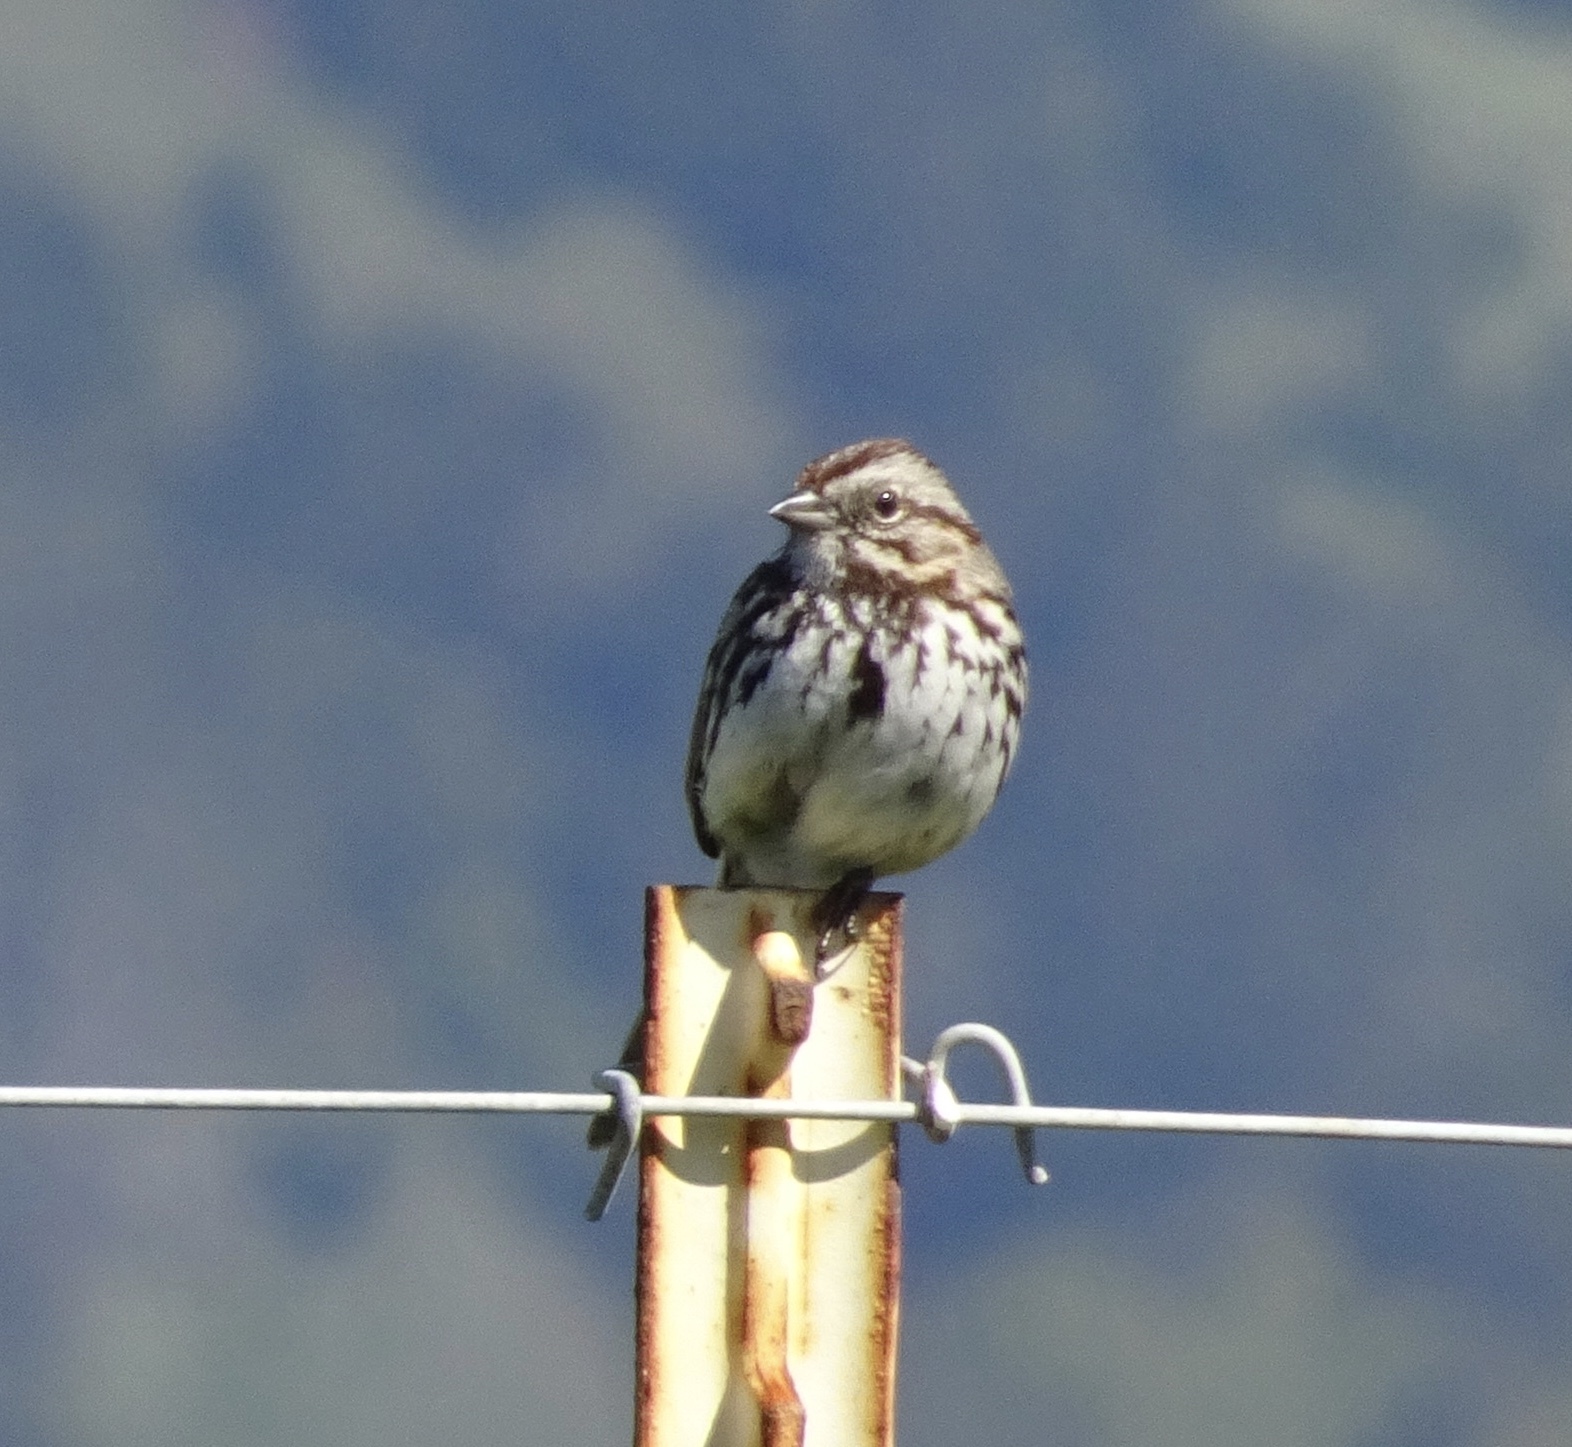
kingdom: Animalia
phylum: Chordata
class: Aves
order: Passeriformes
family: Passerellidae
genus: Melospiza
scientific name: Melospiza melodia
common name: Song sparrow
